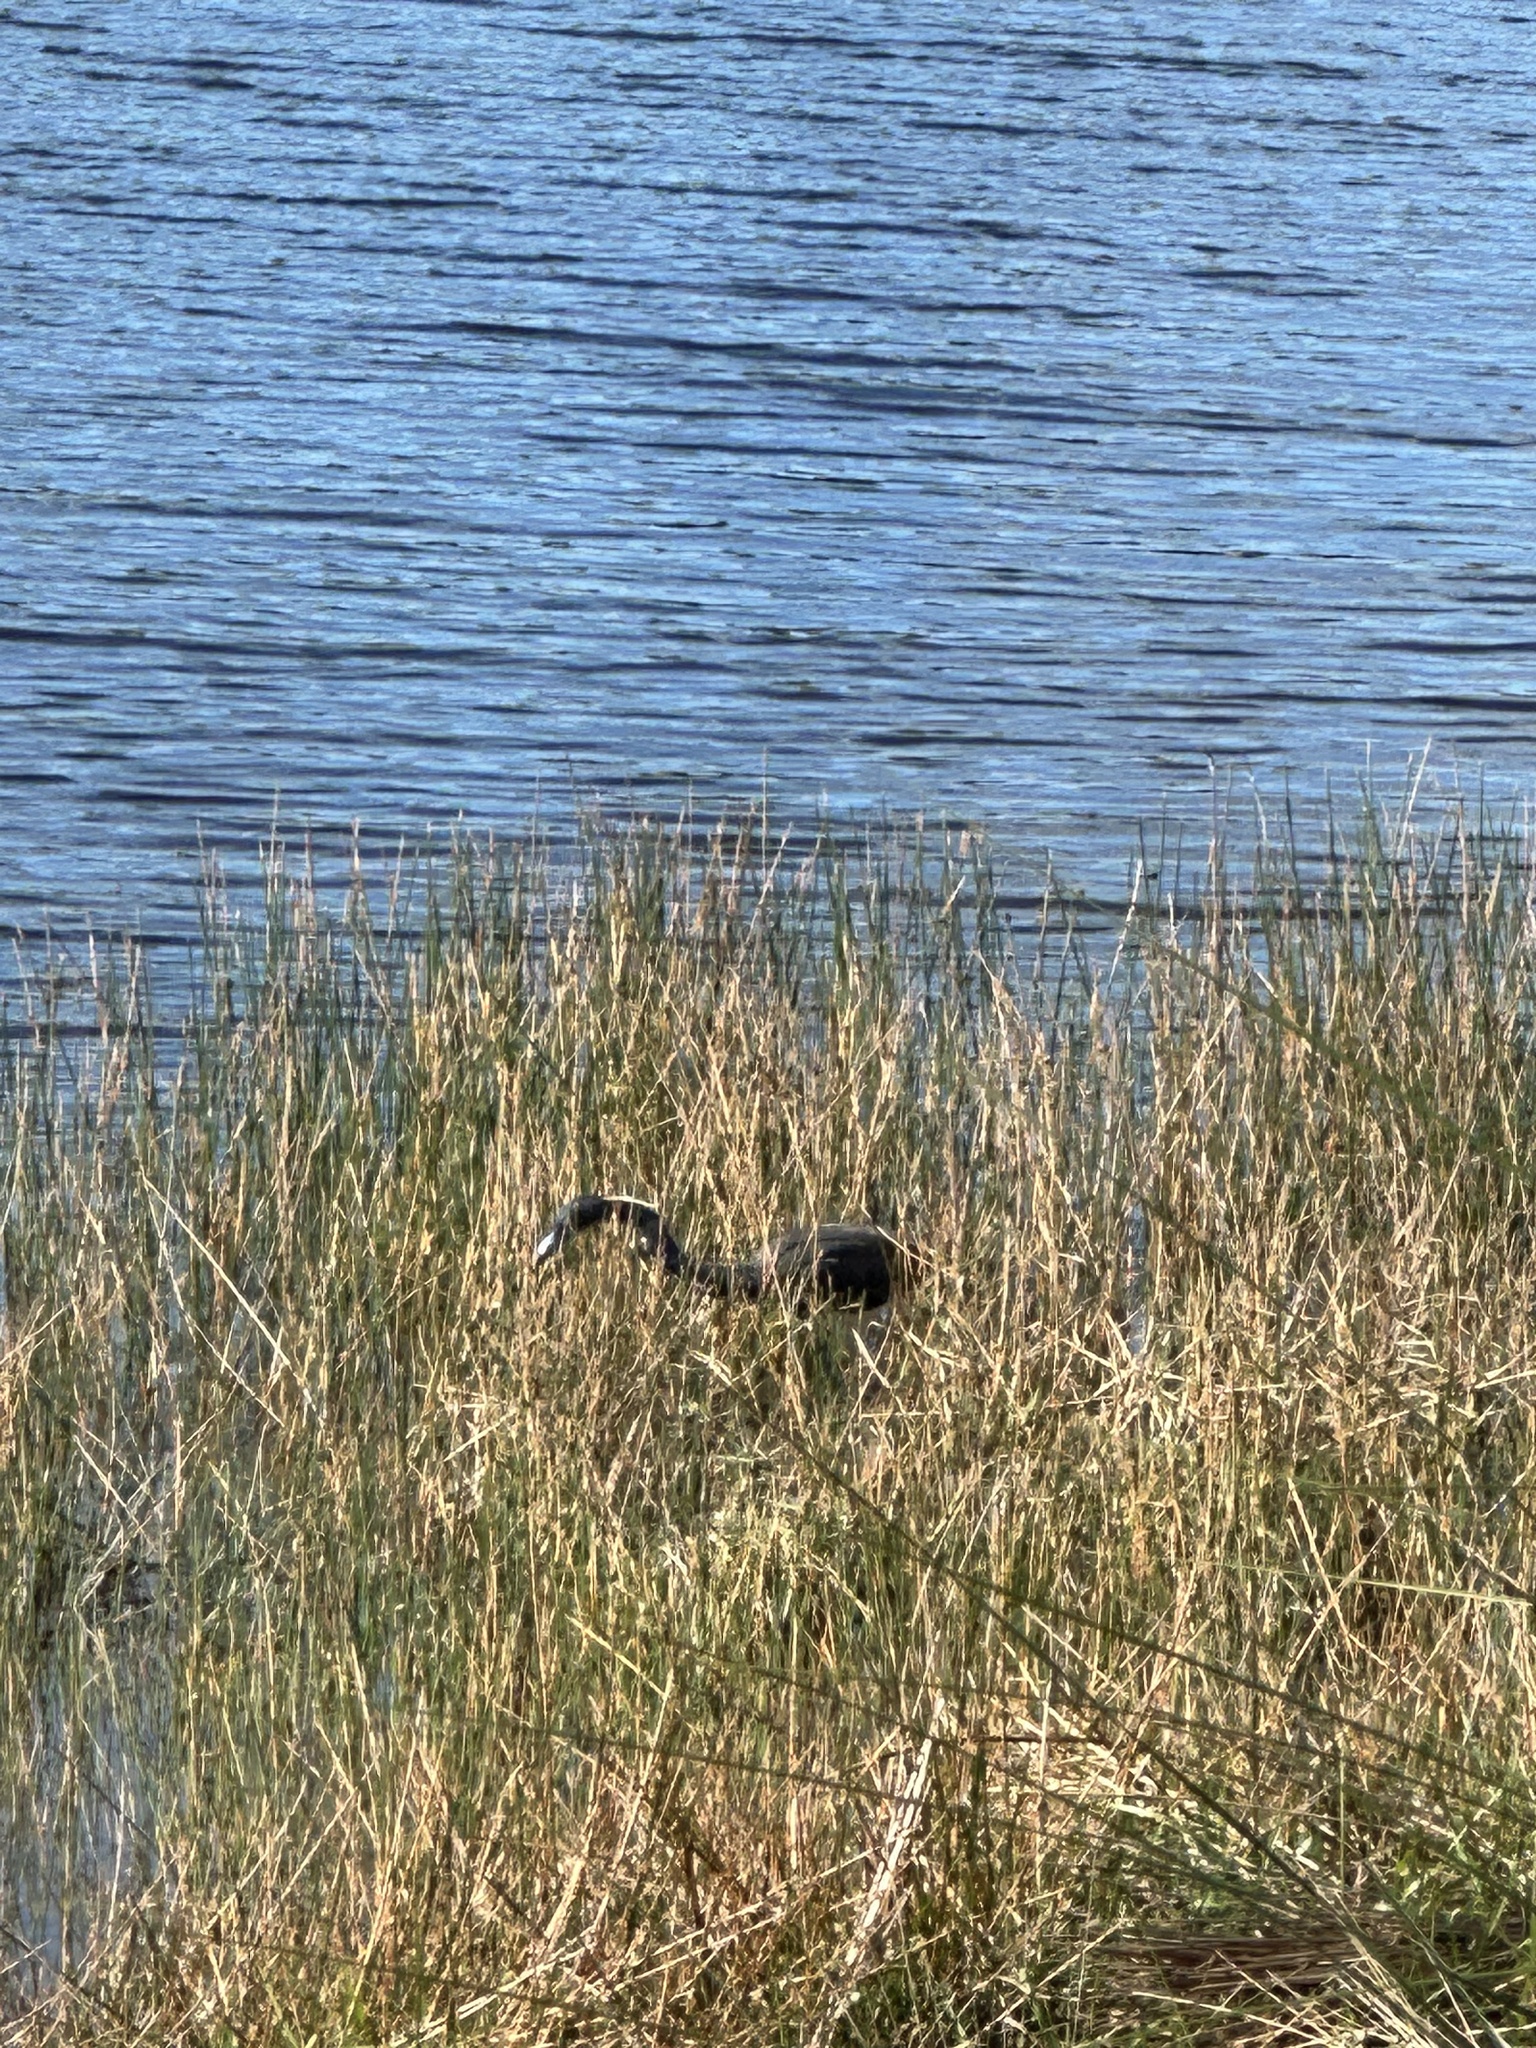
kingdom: Animalia
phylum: Chordata
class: Aves
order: Pelecaniformes
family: Ardeidae
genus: Egretta
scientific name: Egretta tricolor
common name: Tricolored heron
